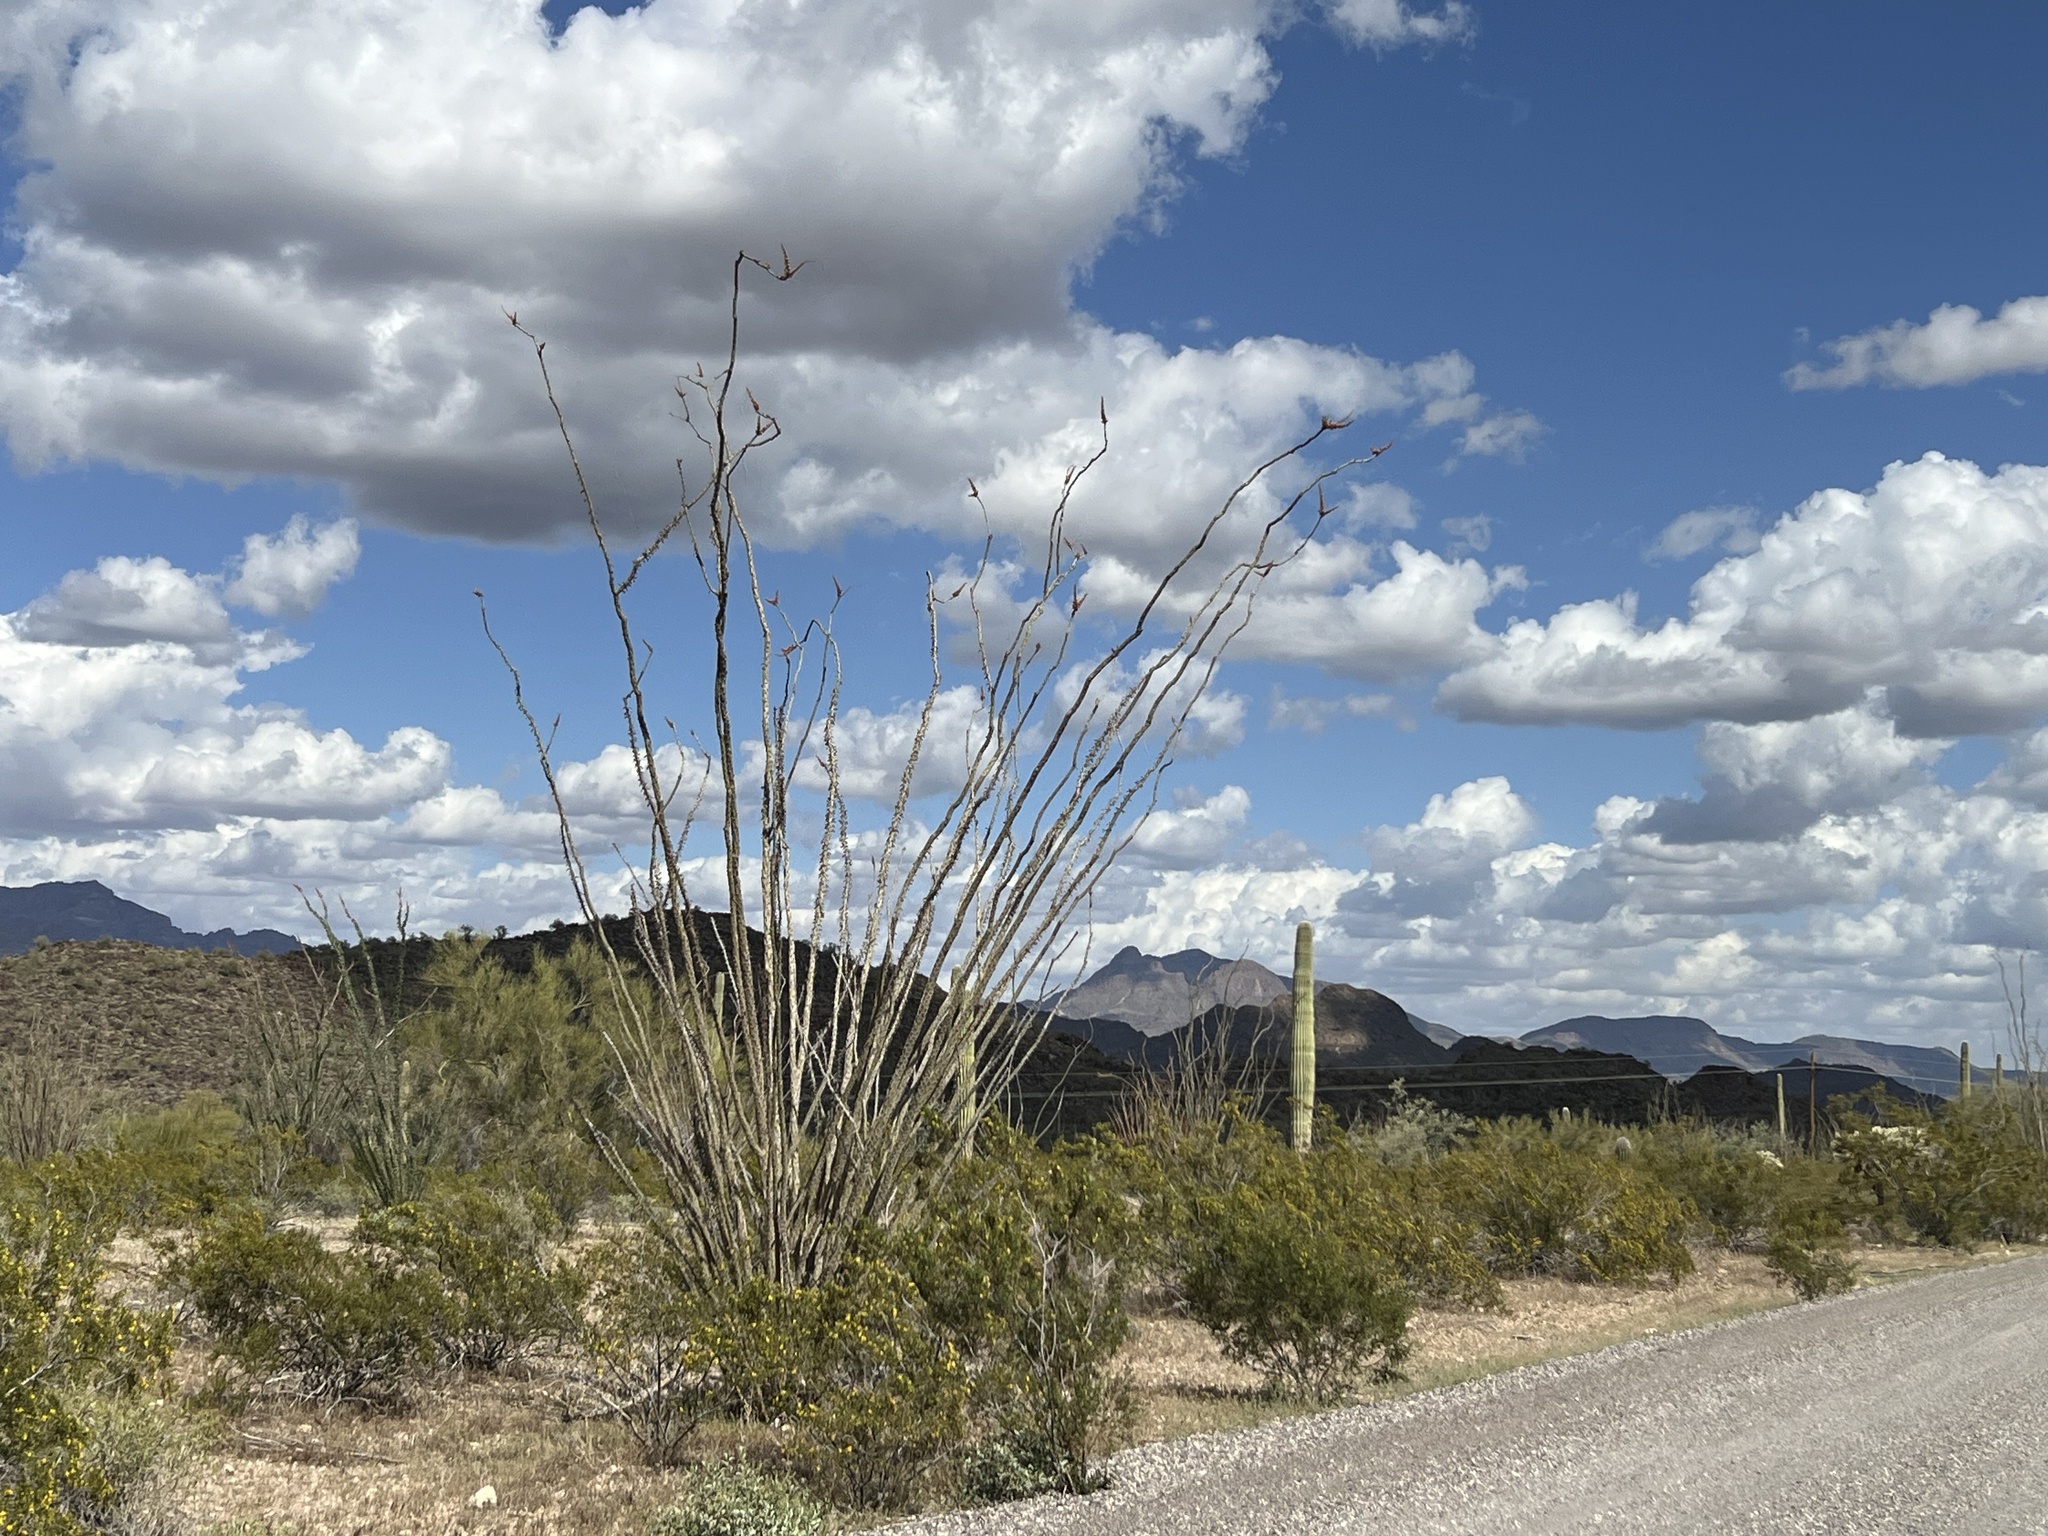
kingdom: Plantae
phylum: Tracheophyta
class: Magnoliopsida
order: Ericales
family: Fouquieriaceae
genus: Fouquieria
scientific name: Fouquieria splendens
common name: Vine-cactus
